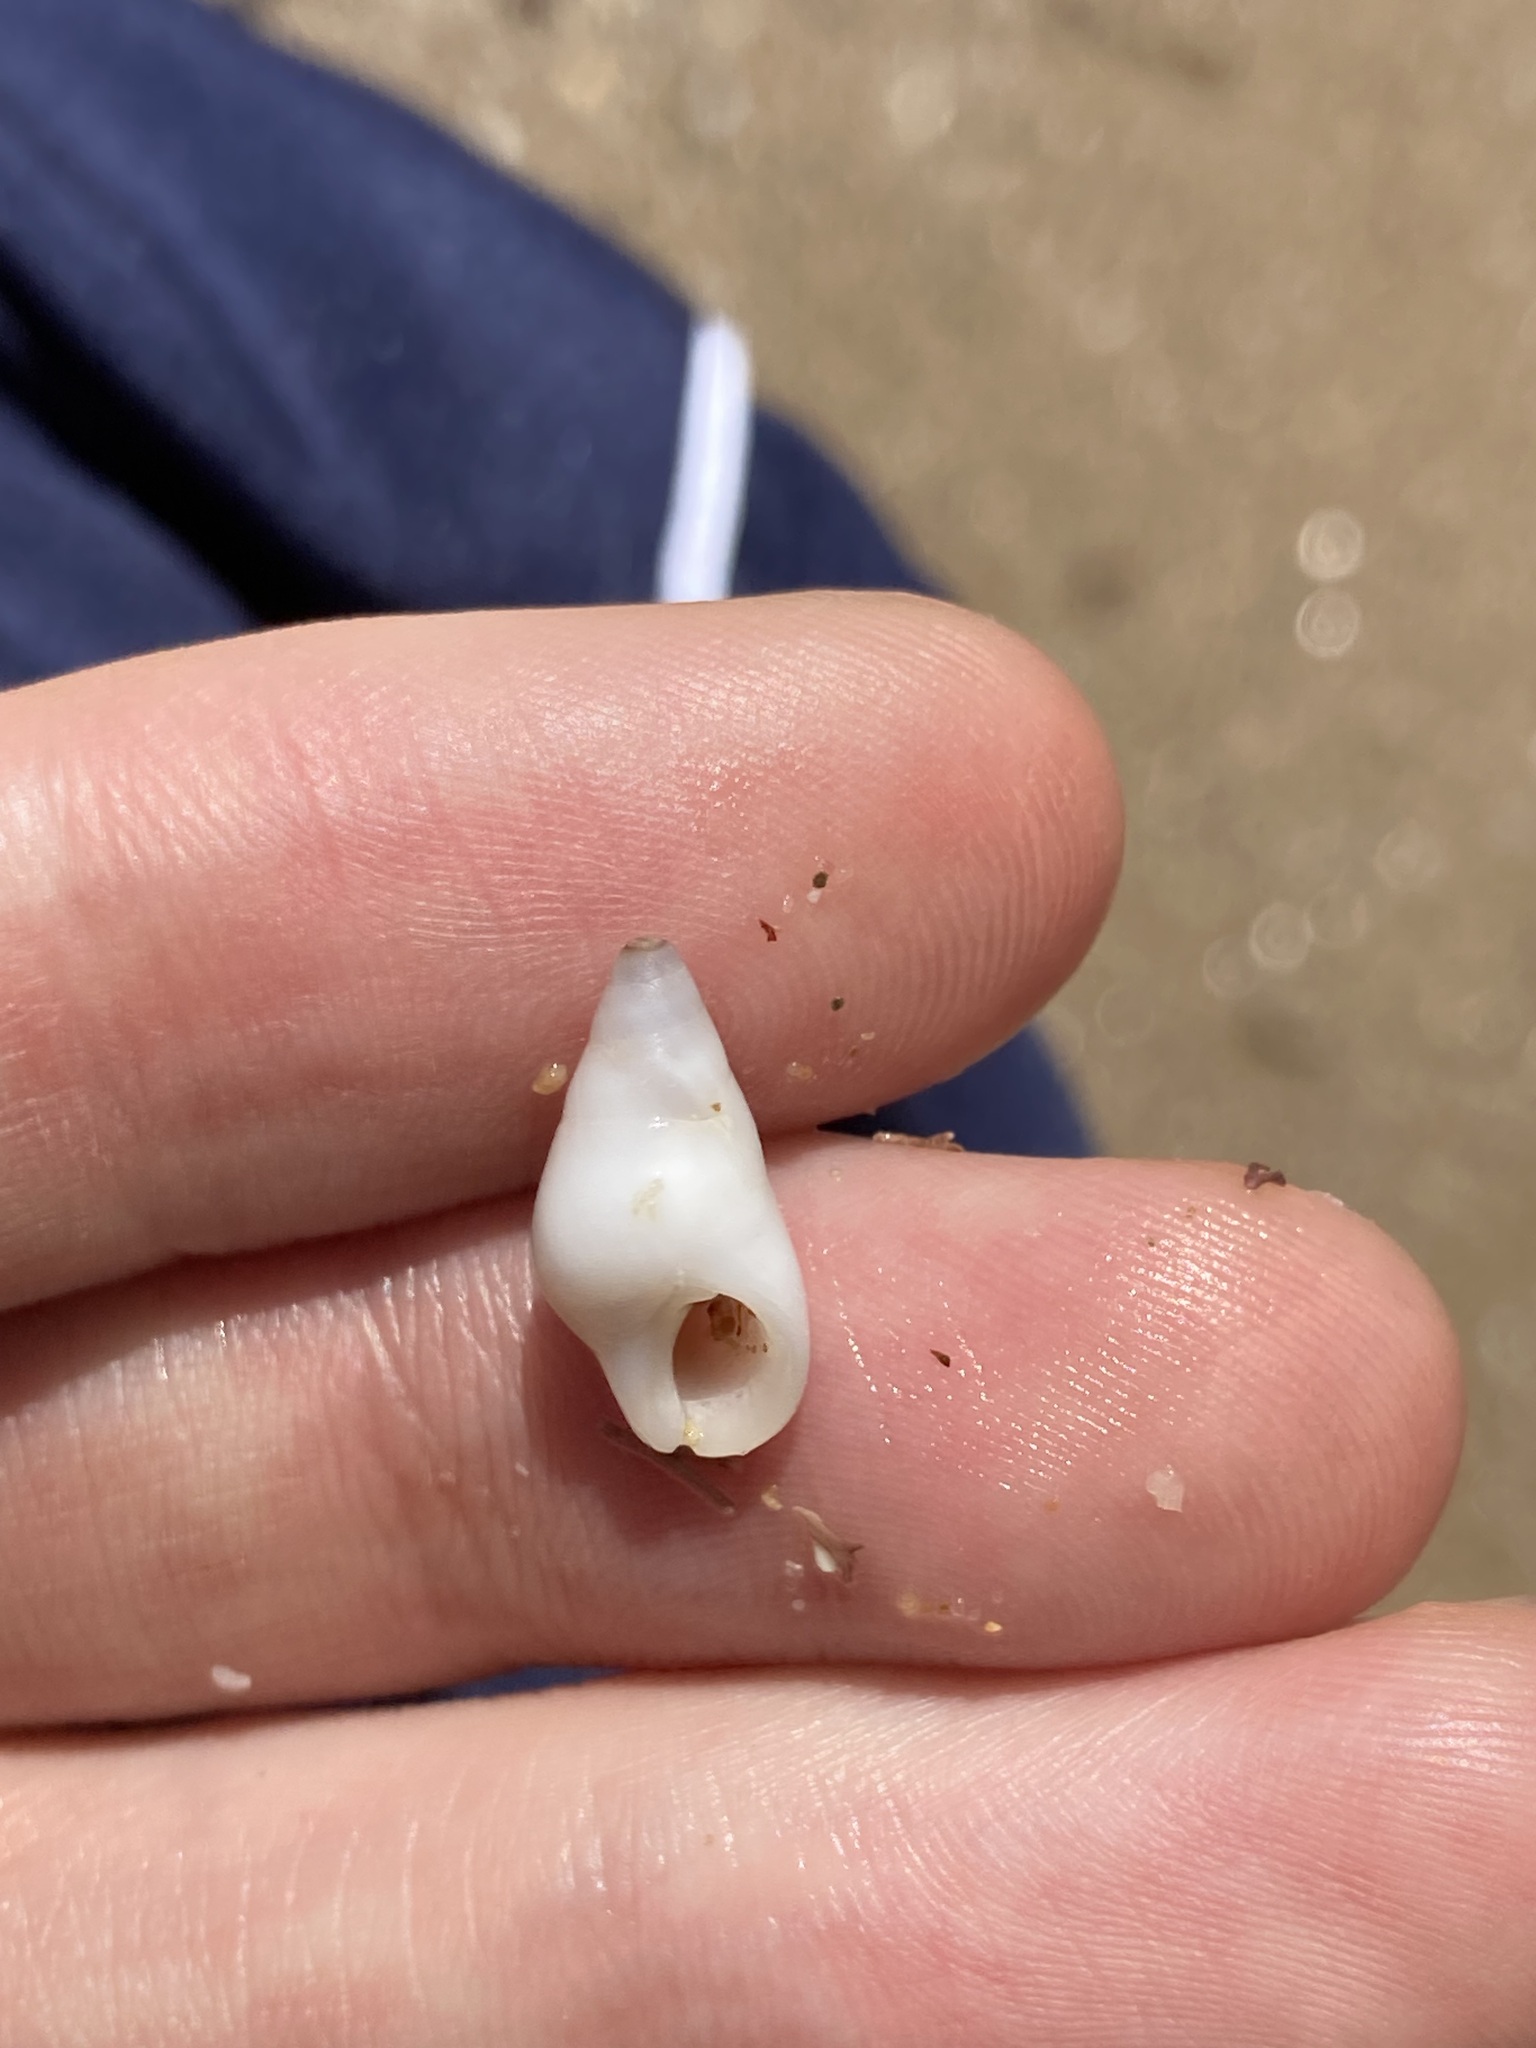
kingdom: Animalia
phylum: Mollusca
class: Gastropoda
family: Planaxidae
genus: Hinea
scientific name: Hinea brasiliana
